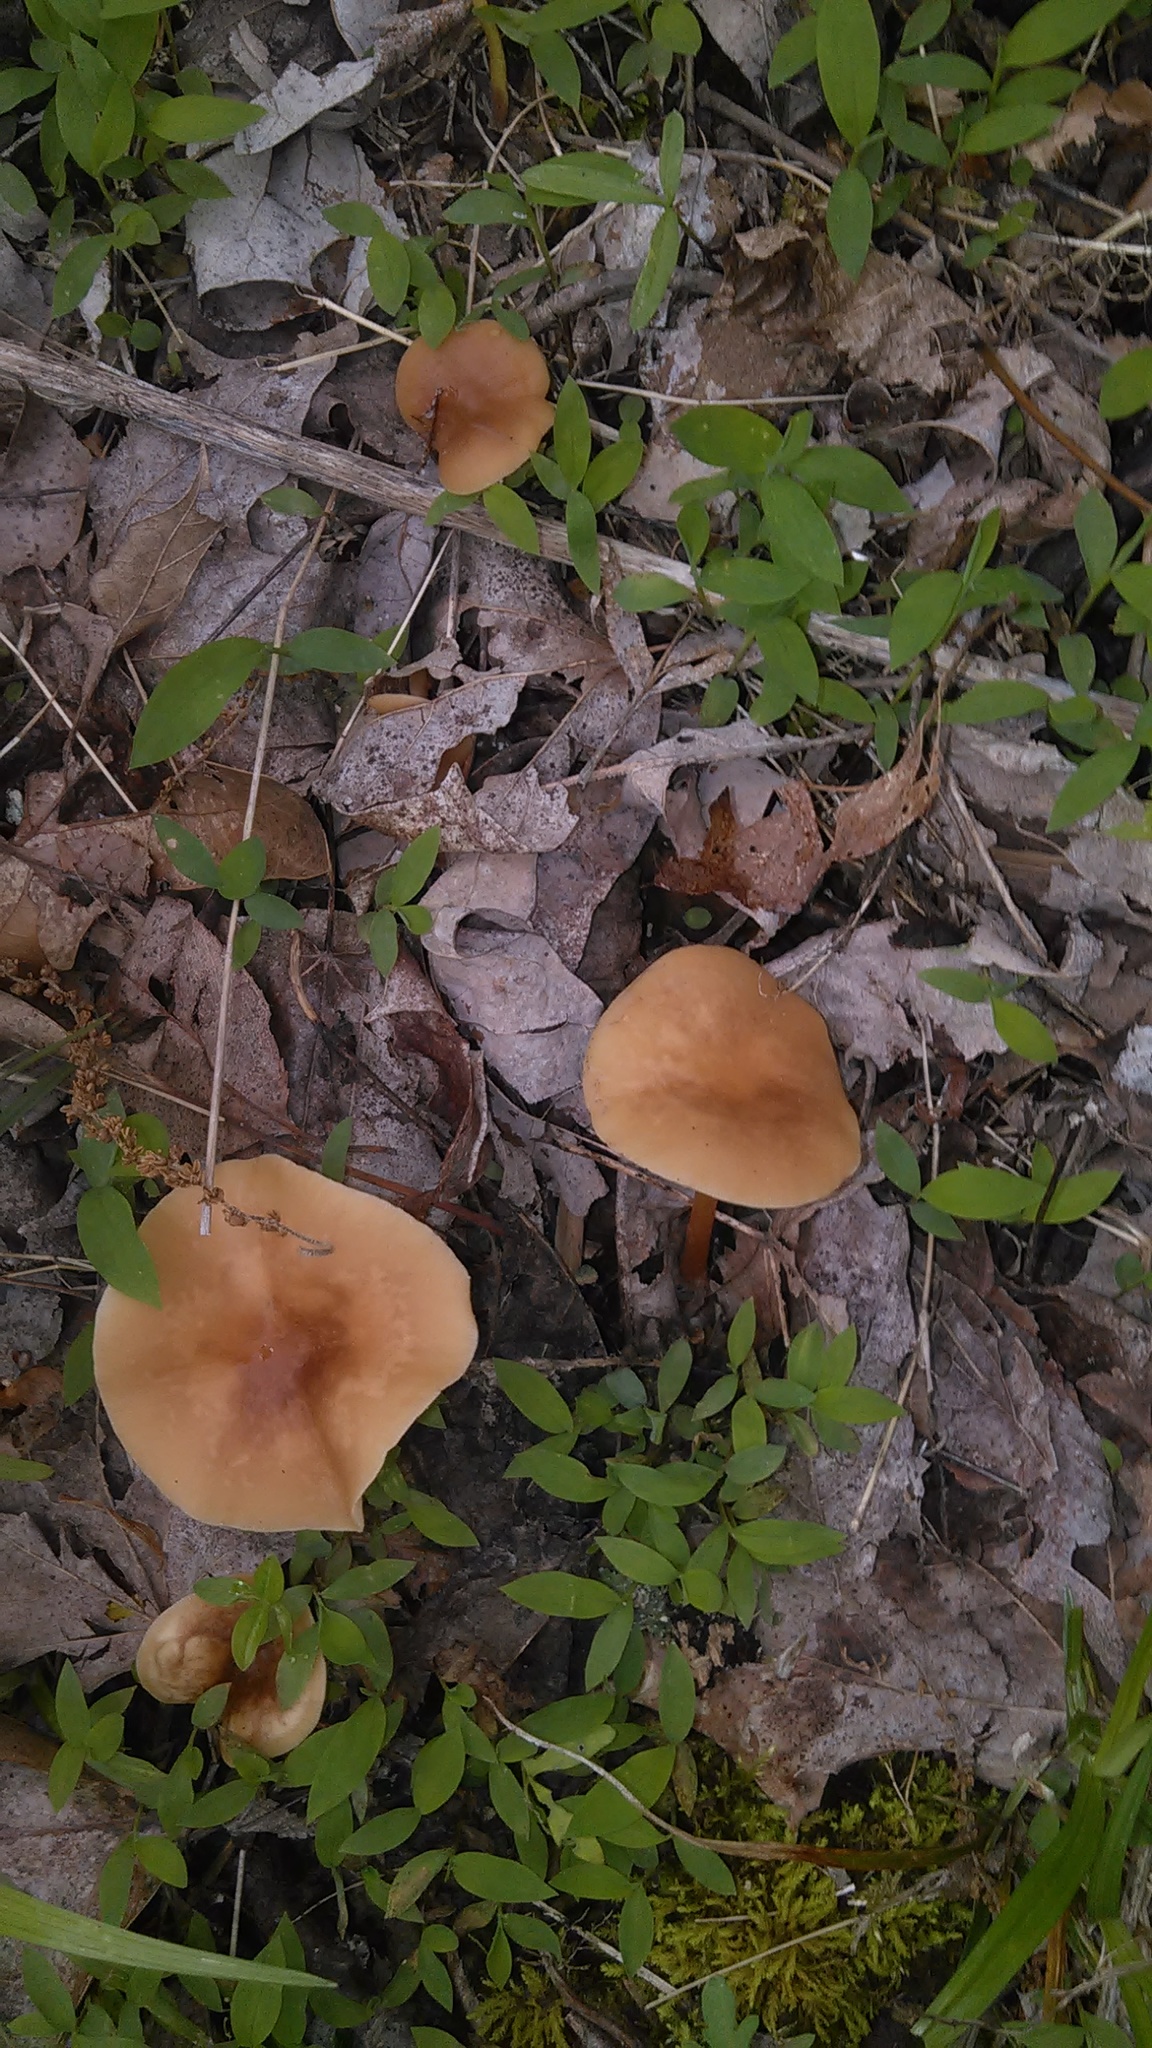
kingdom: Fungi
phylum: Basidiomycota
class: Agaricomycetes
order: Agaricales
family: Omphalotaceae
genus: Gymnopus
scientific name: Gymnopus dryophilus
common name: Penny top
